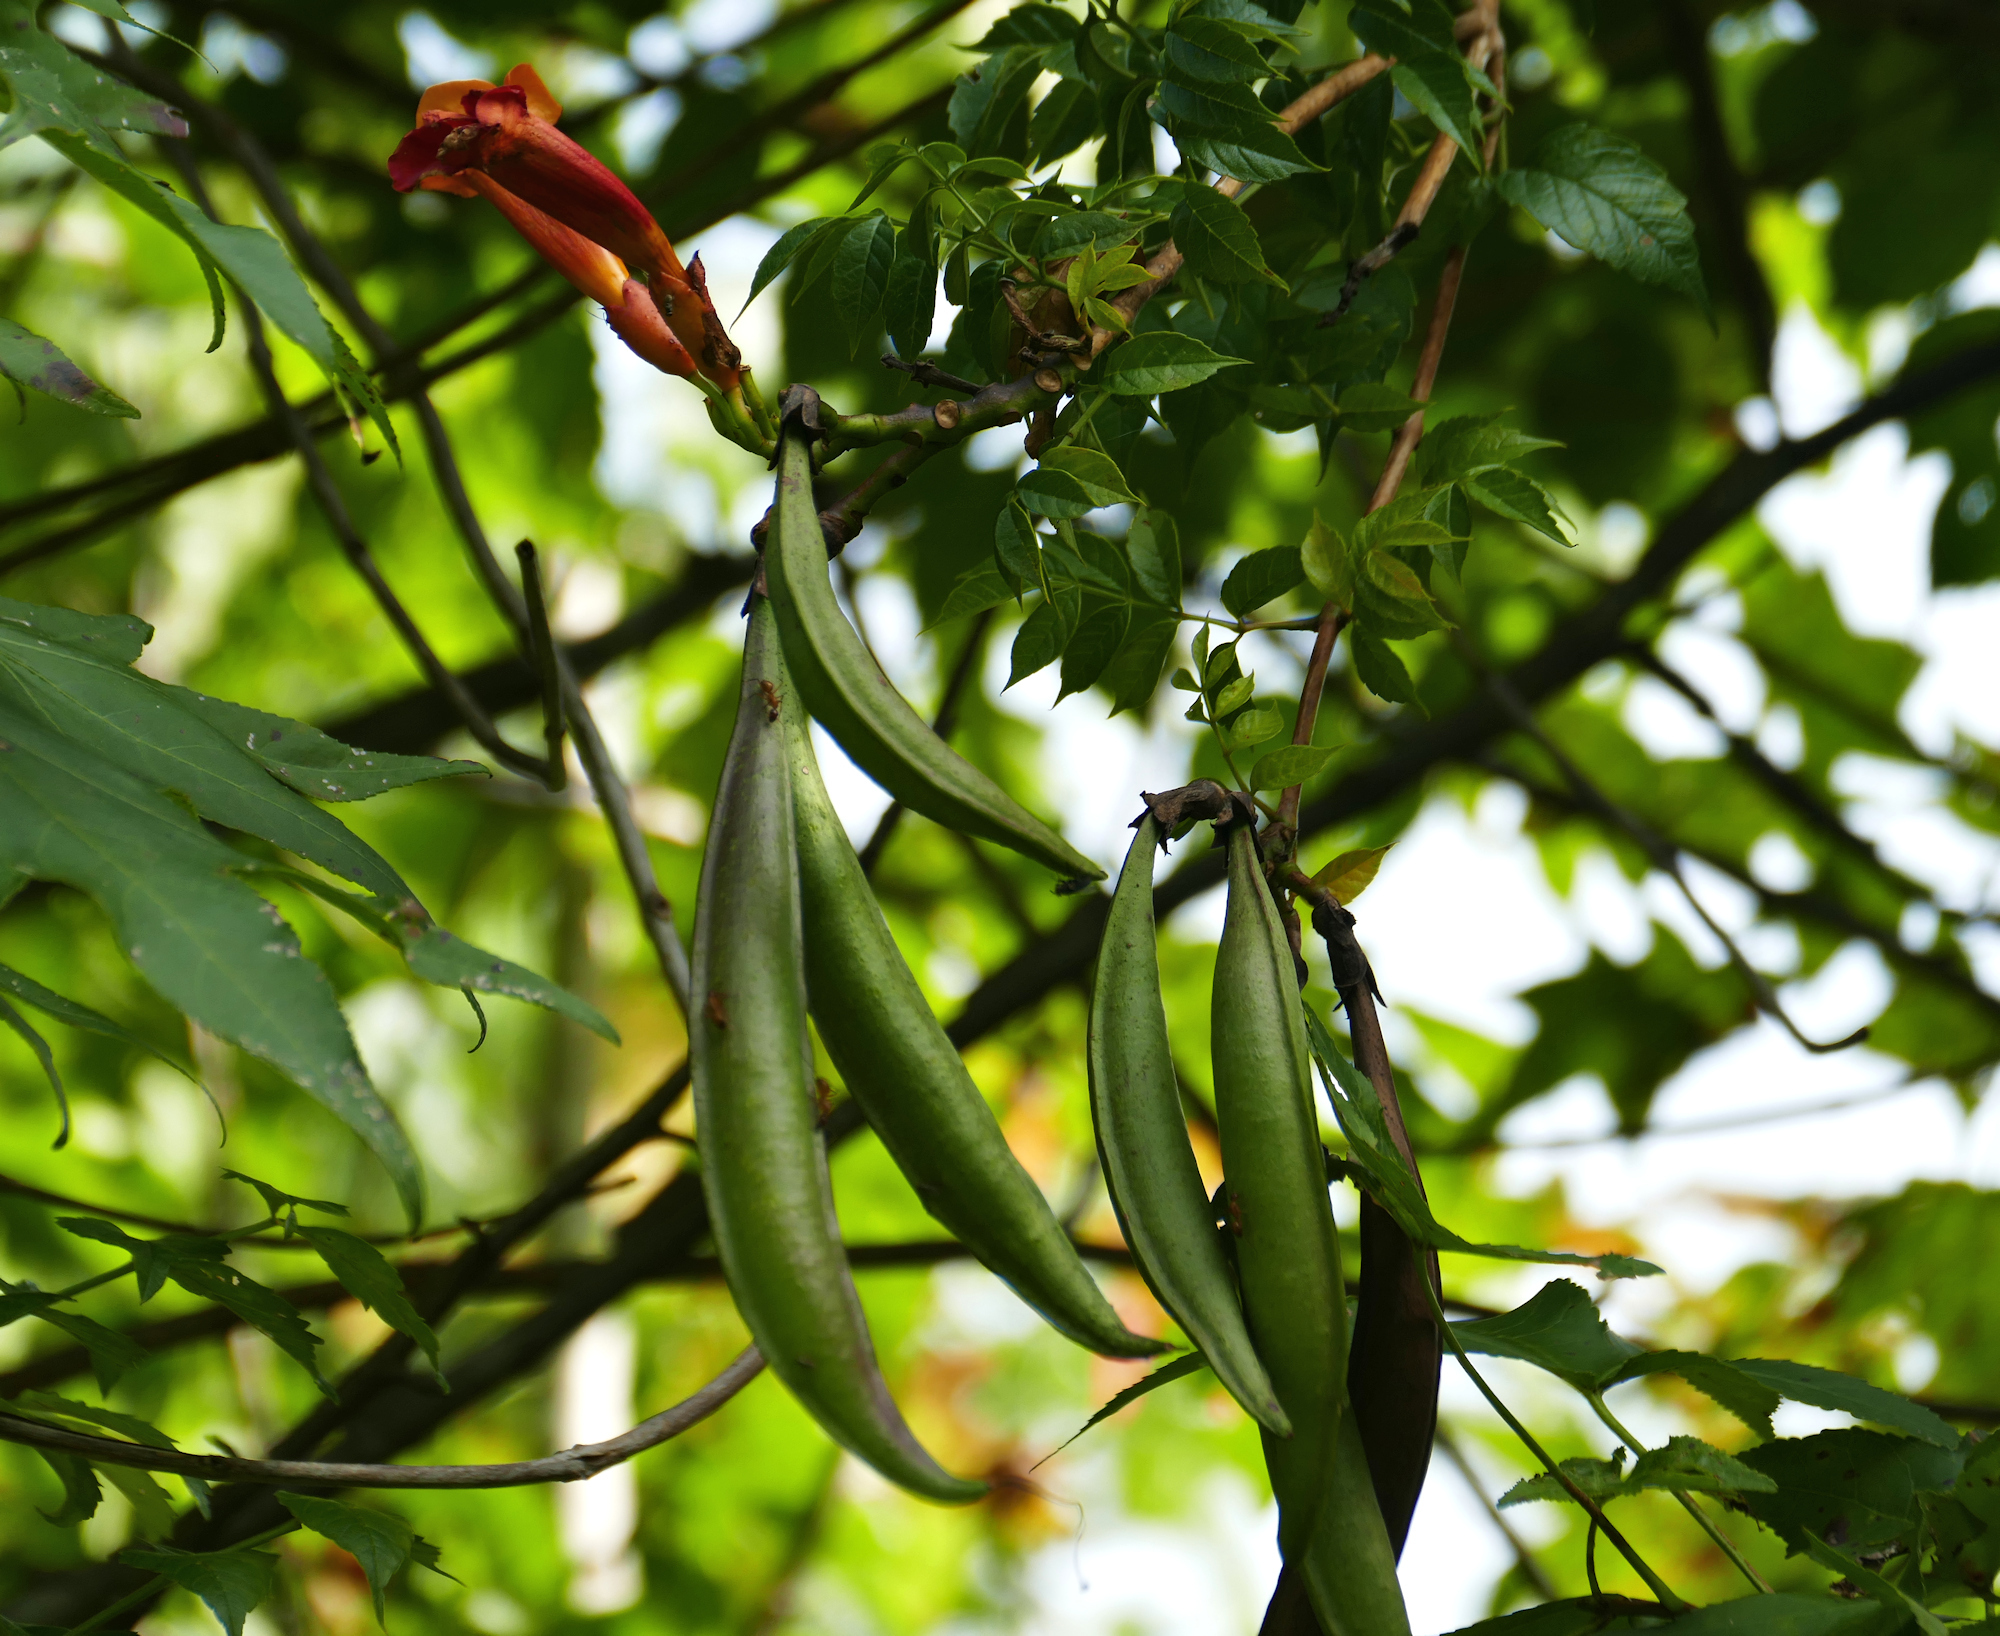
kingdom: Plantae
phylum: Tracheophyta
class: Magnoliopsida
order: Lamiales
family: Bignoniaceae
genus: Campsis
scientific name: Campsis radicans
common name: Trumpet-creeper
